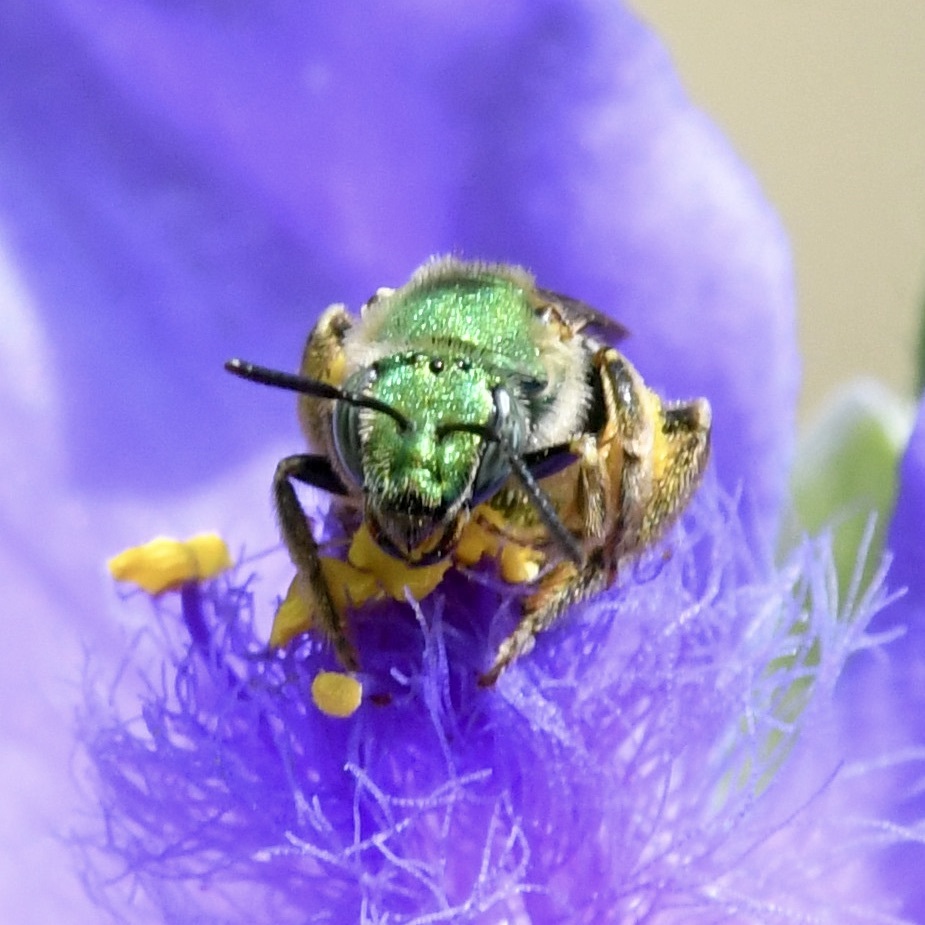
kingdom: Animalia
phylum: Arthropoda
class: Insecta
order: Hymenoptera
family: Halictidae
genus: Agapostemon
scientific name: Agapostemon virescens
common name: Bicolored striped sweat bee
